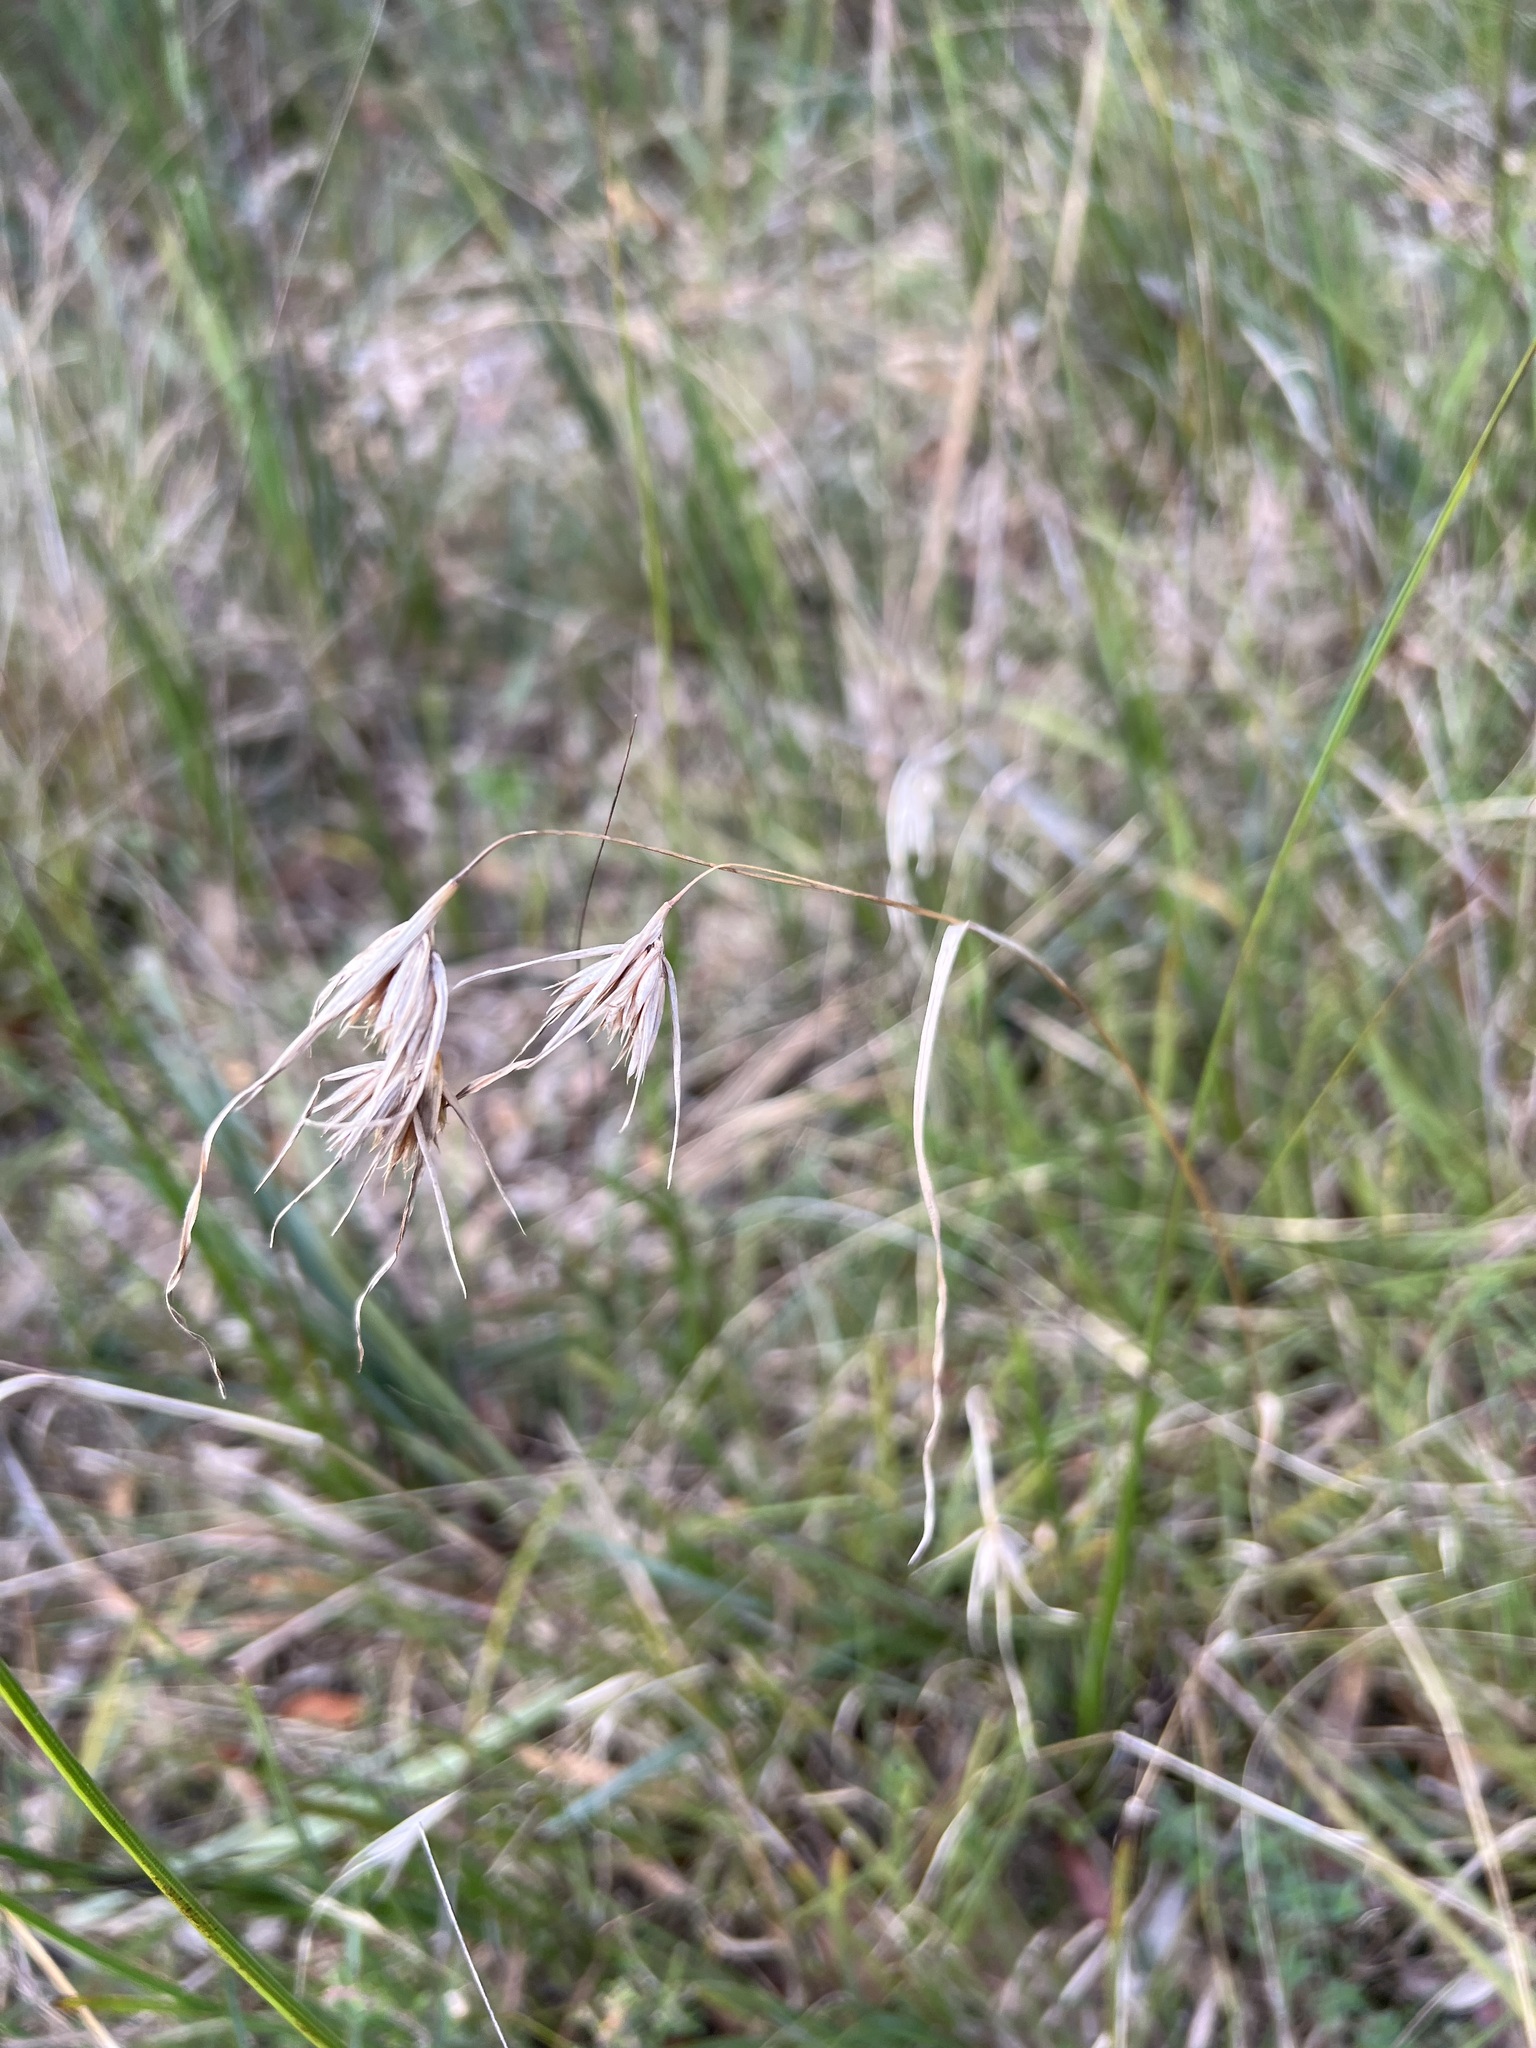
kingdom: Plantae
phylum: Tracheophyta
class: Liliopsida
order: Poales
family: Poaceae
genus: Themeda
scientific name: Themeda triandra
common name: Kangaroo grass
